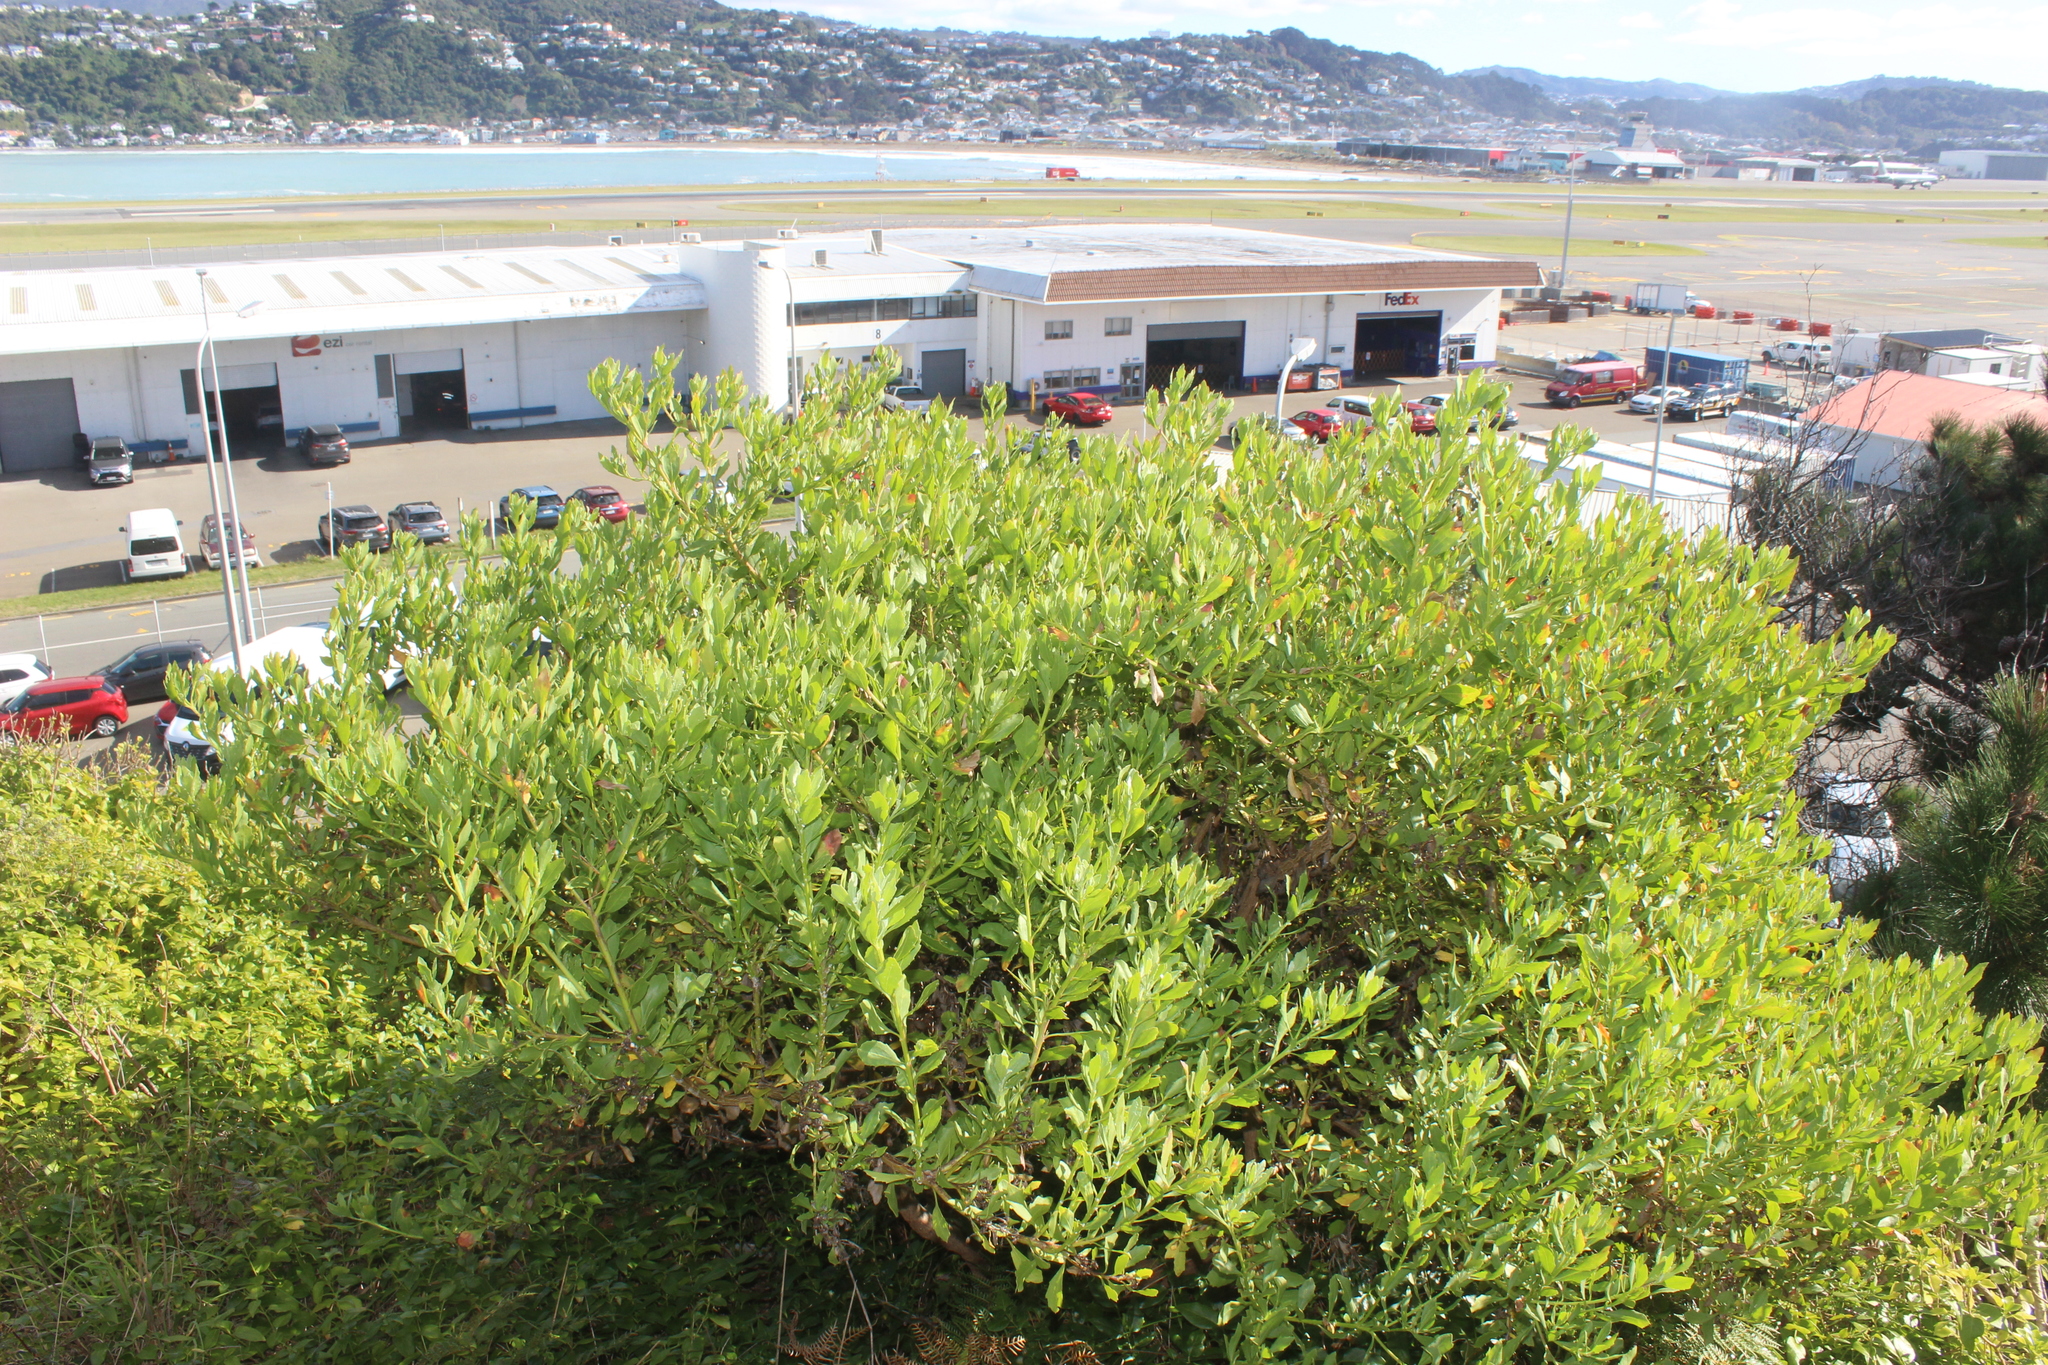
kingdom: Plantae
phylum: Tracheophyta
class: Magnoliopsida
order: Asterales
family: Asteraceae
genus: Osteospermum
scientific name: Osteospermum moniliferum
